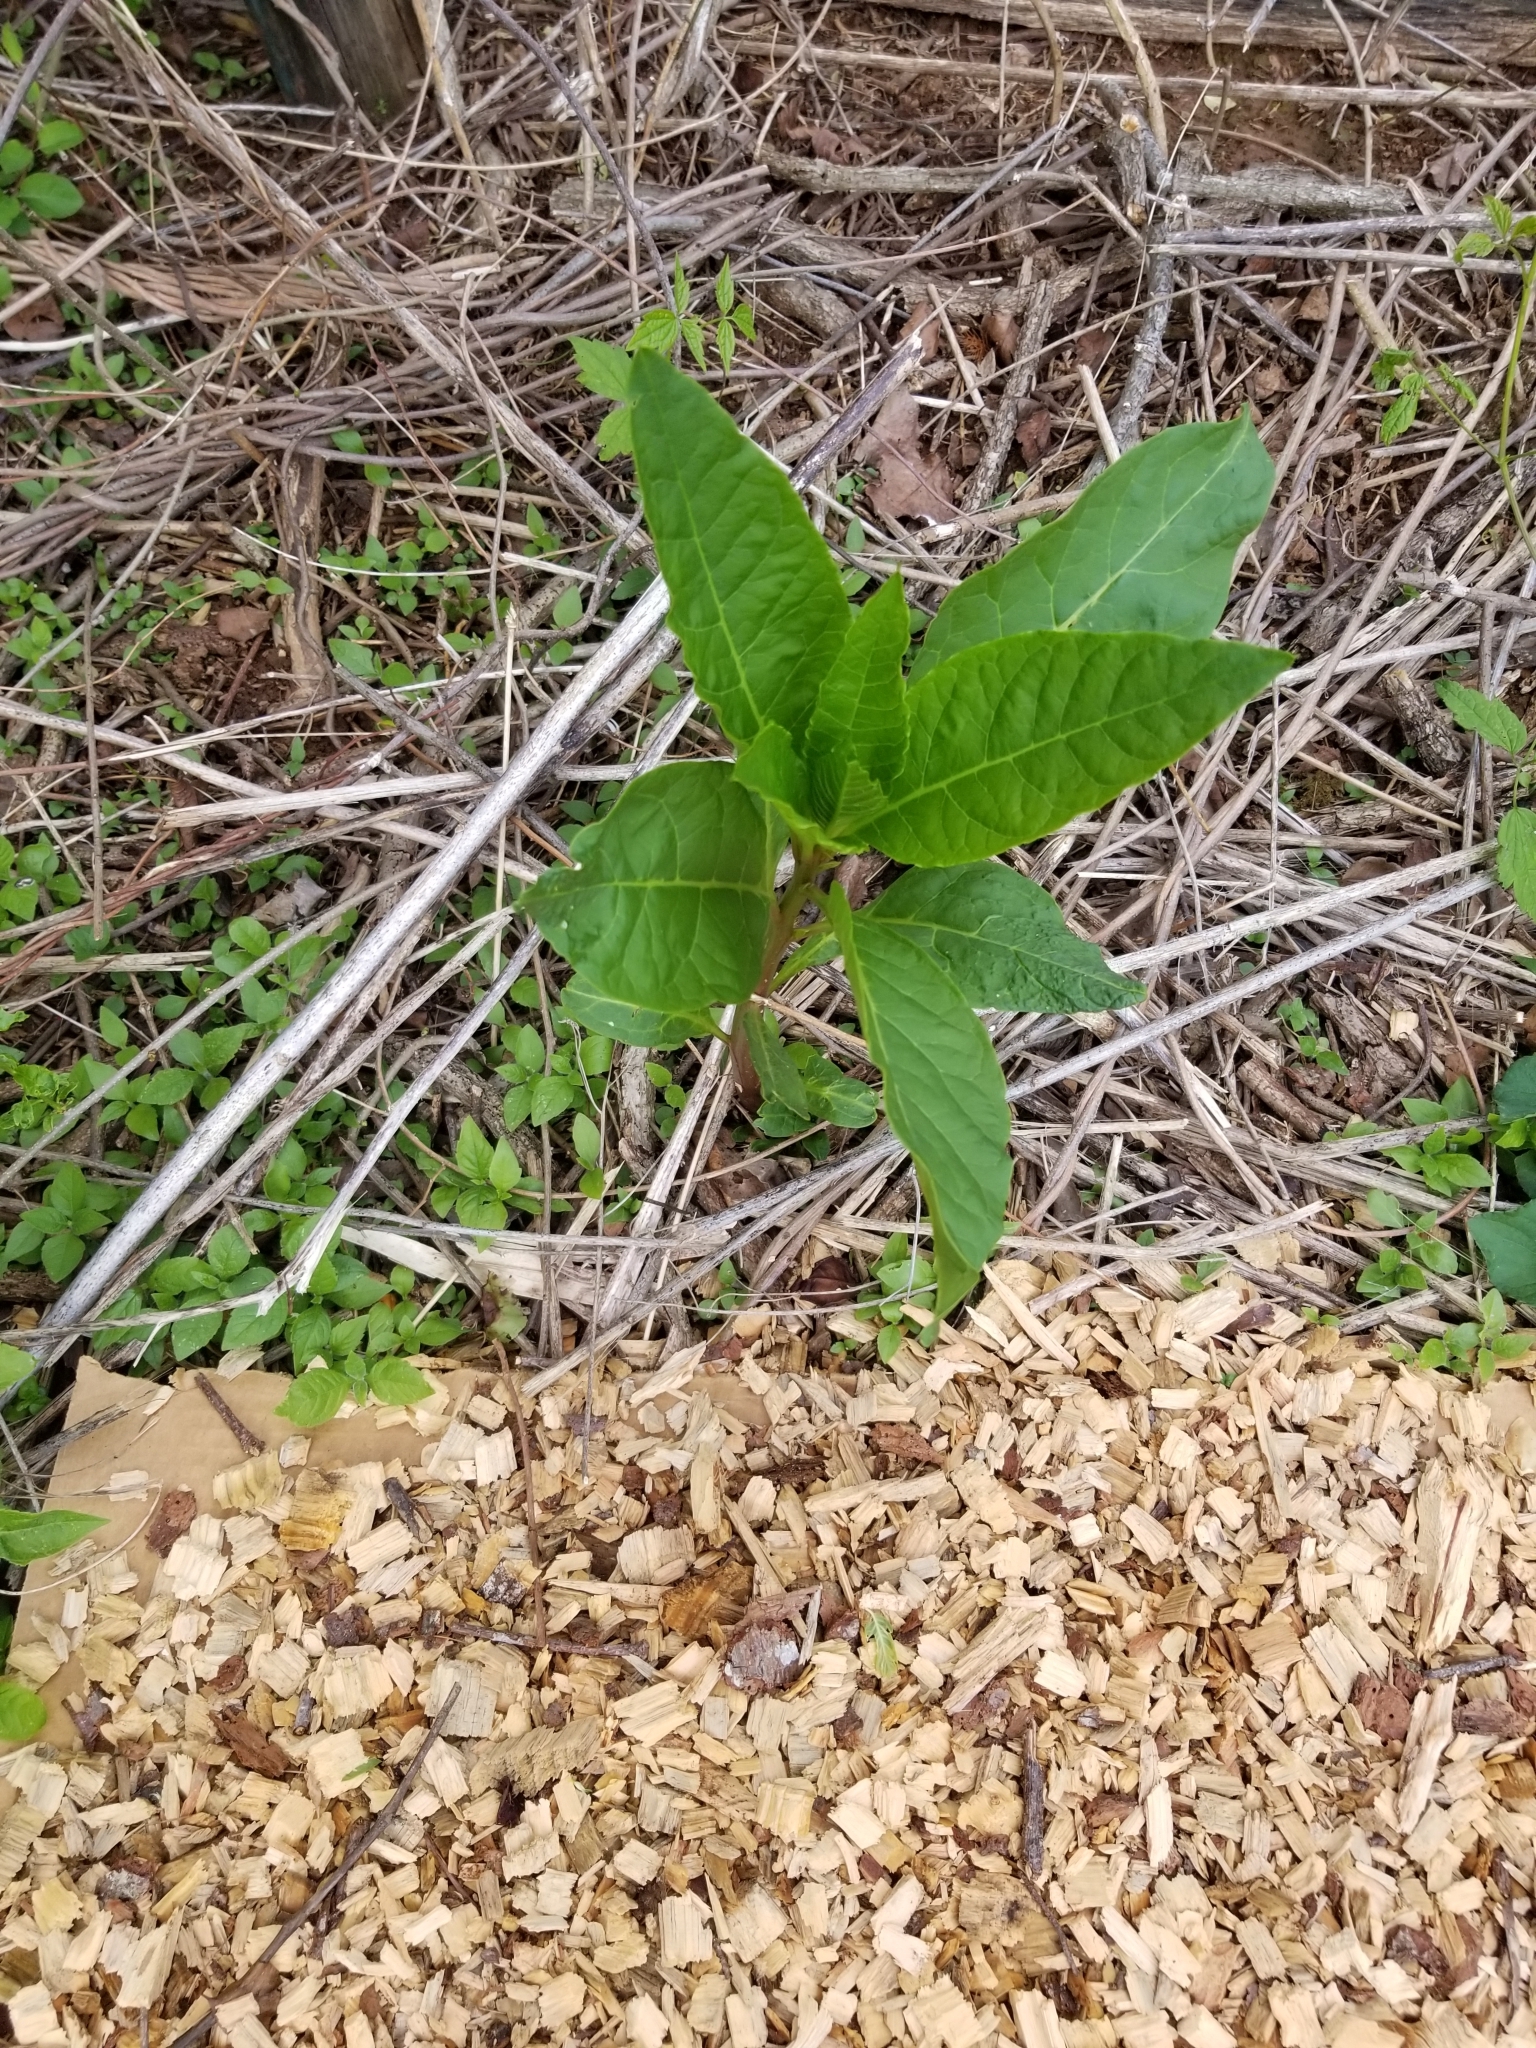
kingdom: Plantae
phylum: Tracheophyta
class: Magnoliopsida
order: Caryophyllales
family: Phytolaccaceae
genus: Phytolacca
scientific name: Phytolacca americana
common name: American pokeweed
